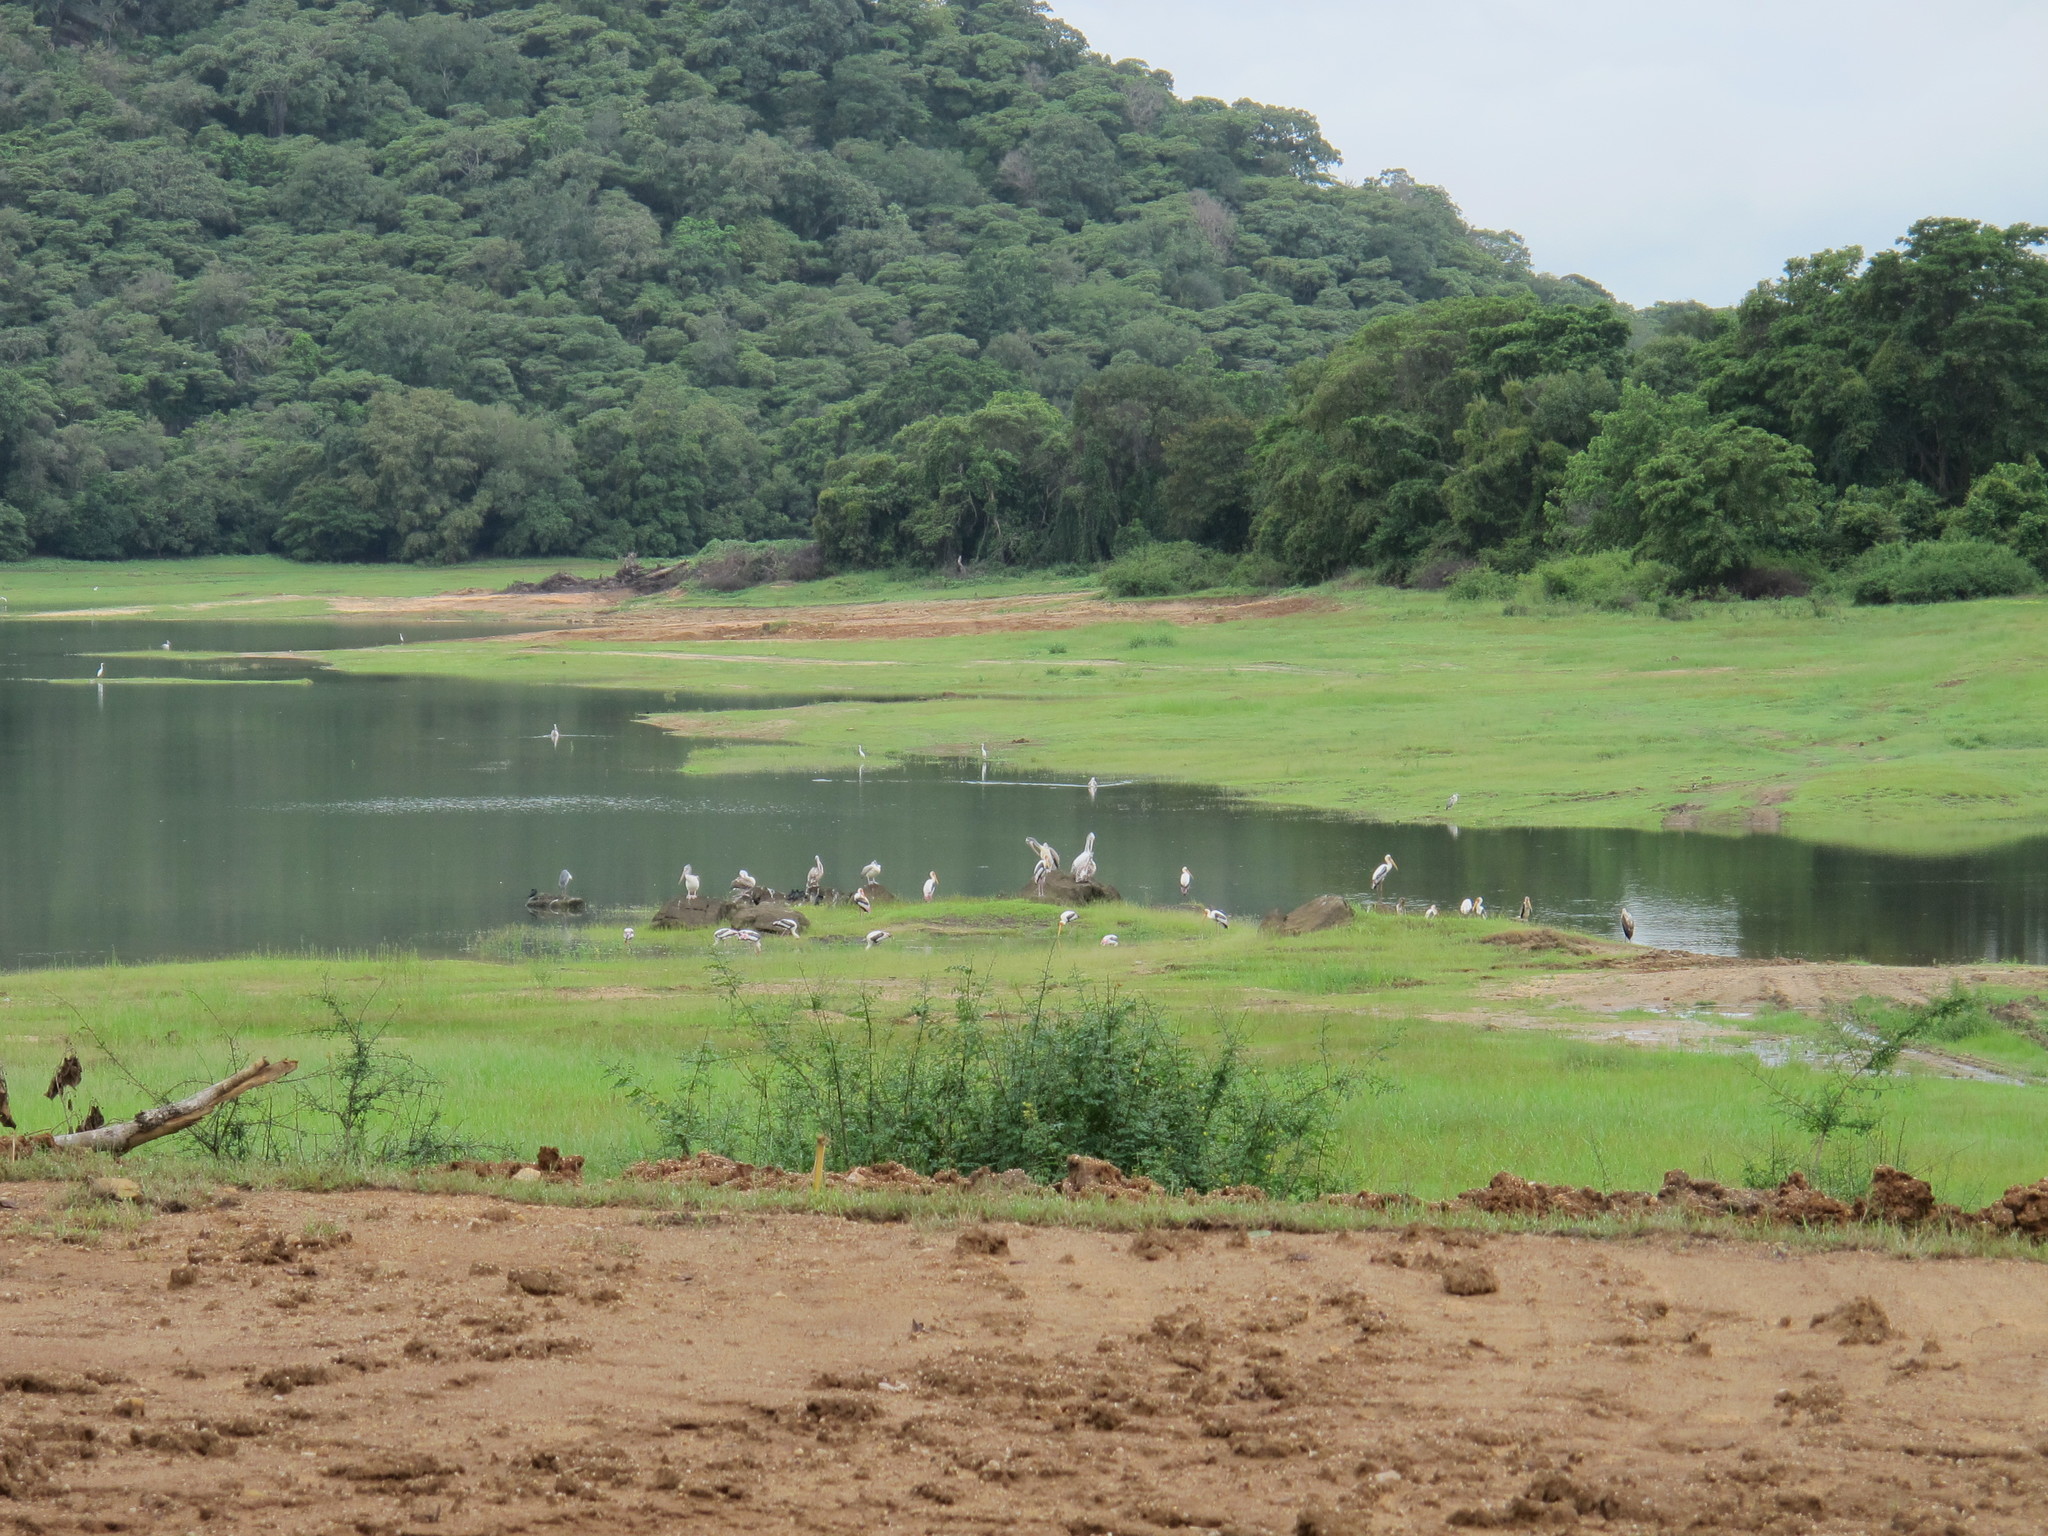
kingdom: Animalia
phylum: Chordata
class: Aves
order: Ciconiiformes
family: Ciconiidae
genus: Mycteria
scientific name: Mycteria leucocephala
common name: Painted stork
